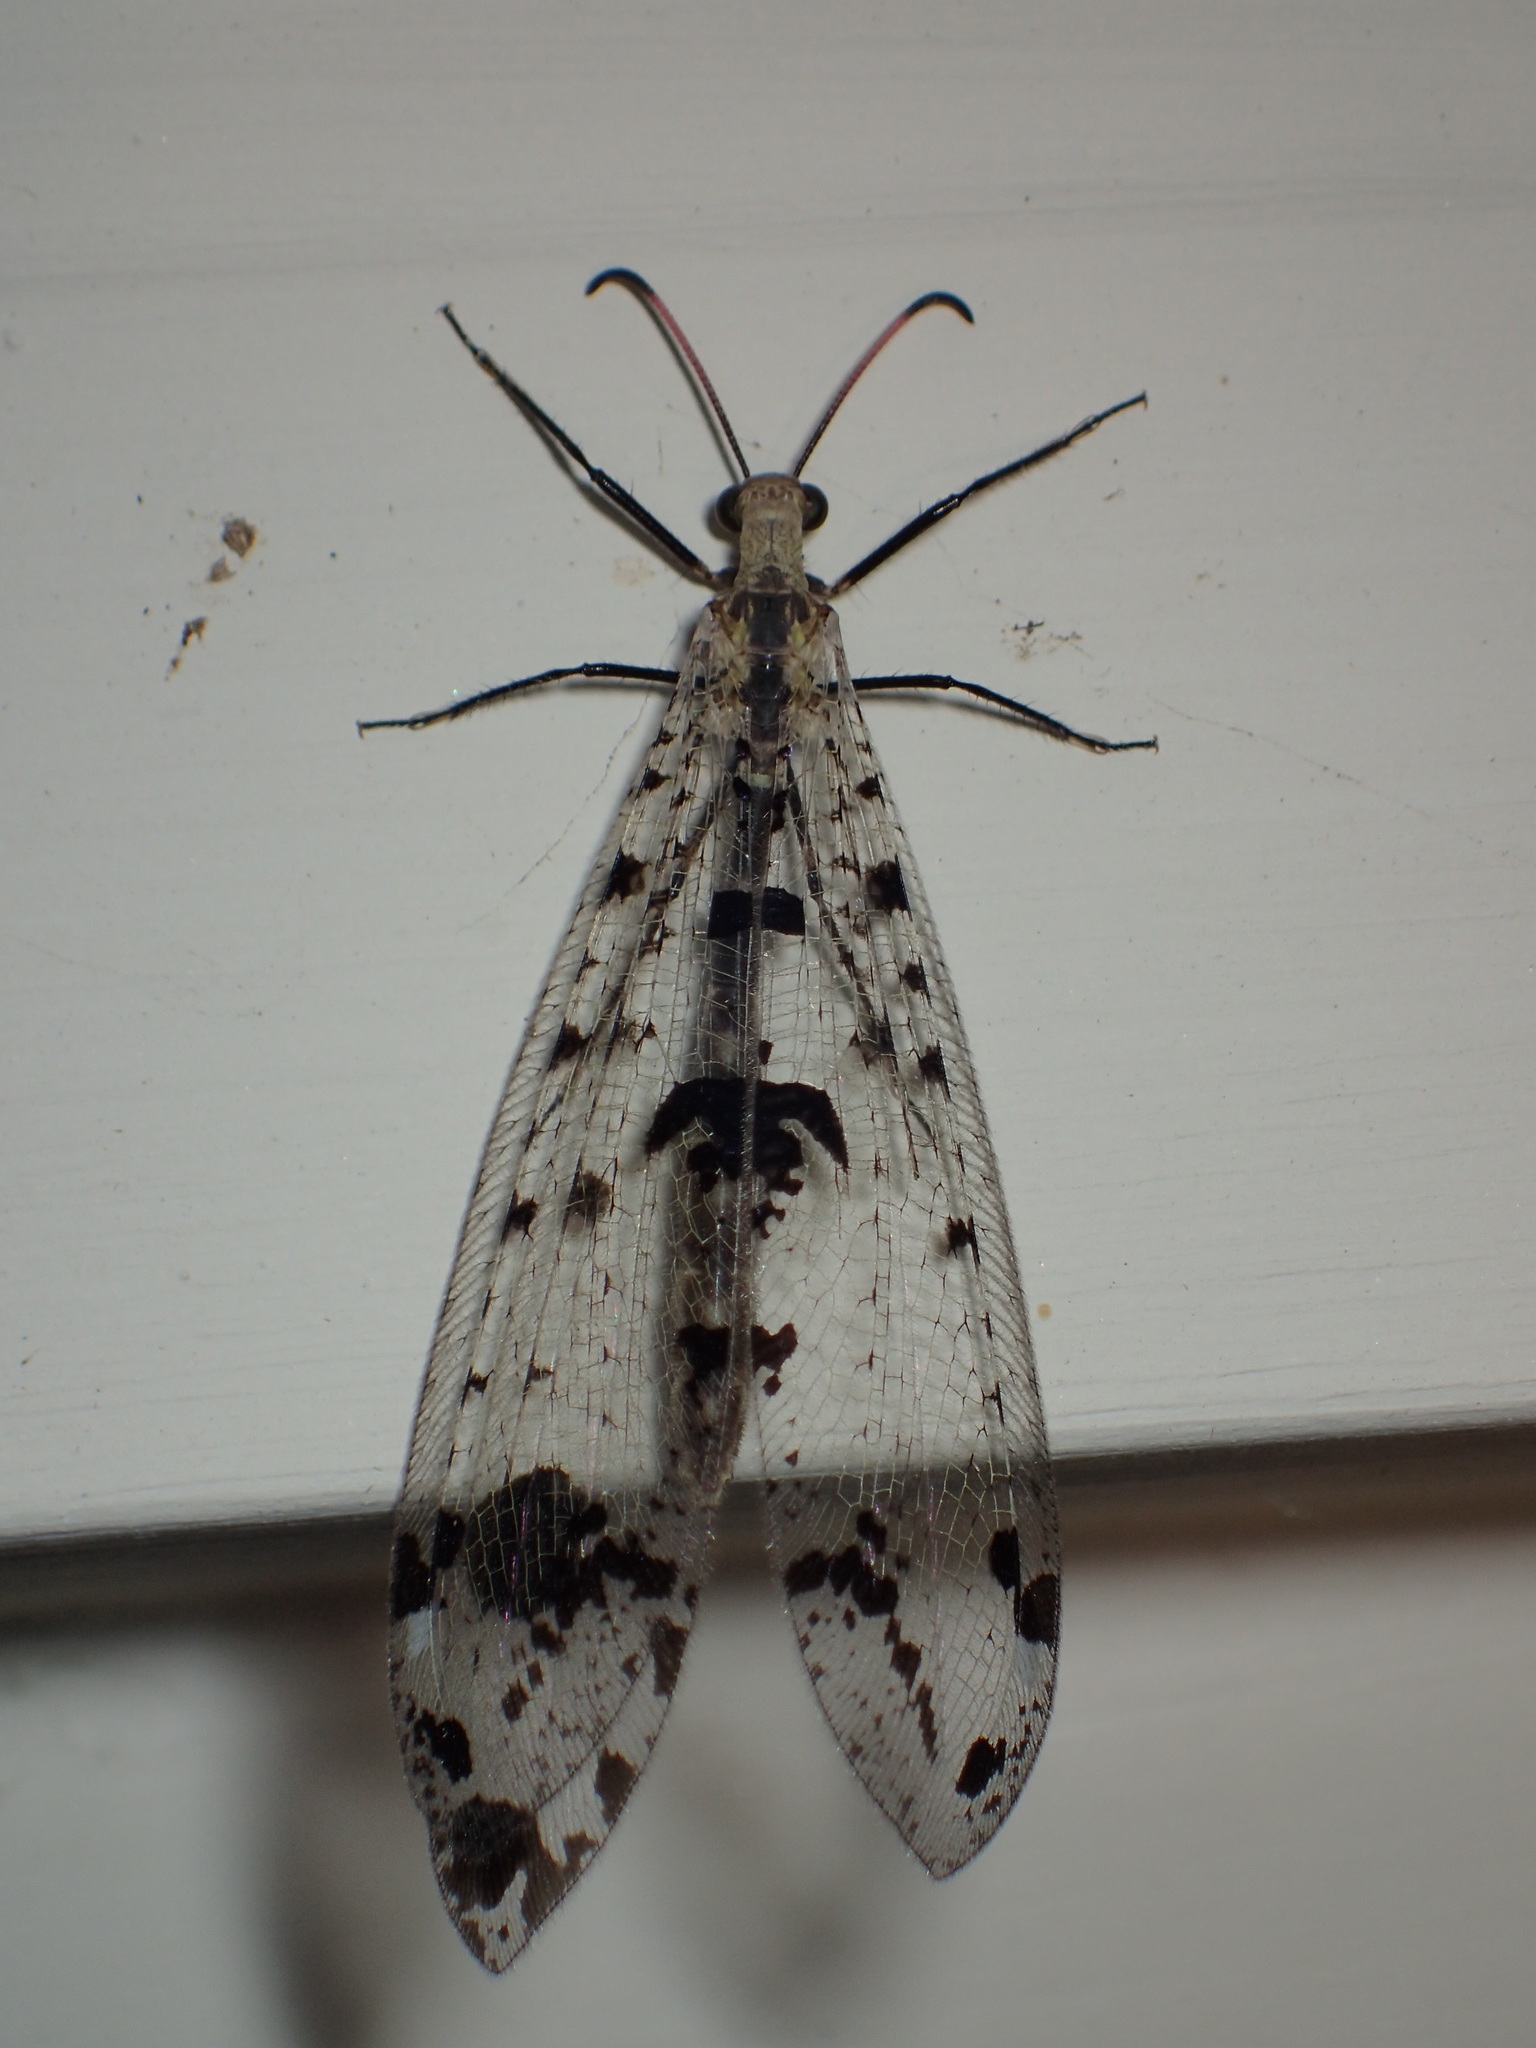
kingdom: Animalia
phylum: Arthropoda
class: Insecta
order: Neuroptera
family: Myrmeleontidae
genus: Dendroleon
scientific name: Dendroleon obsoletus
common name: Eastern spotted-winged antlion
